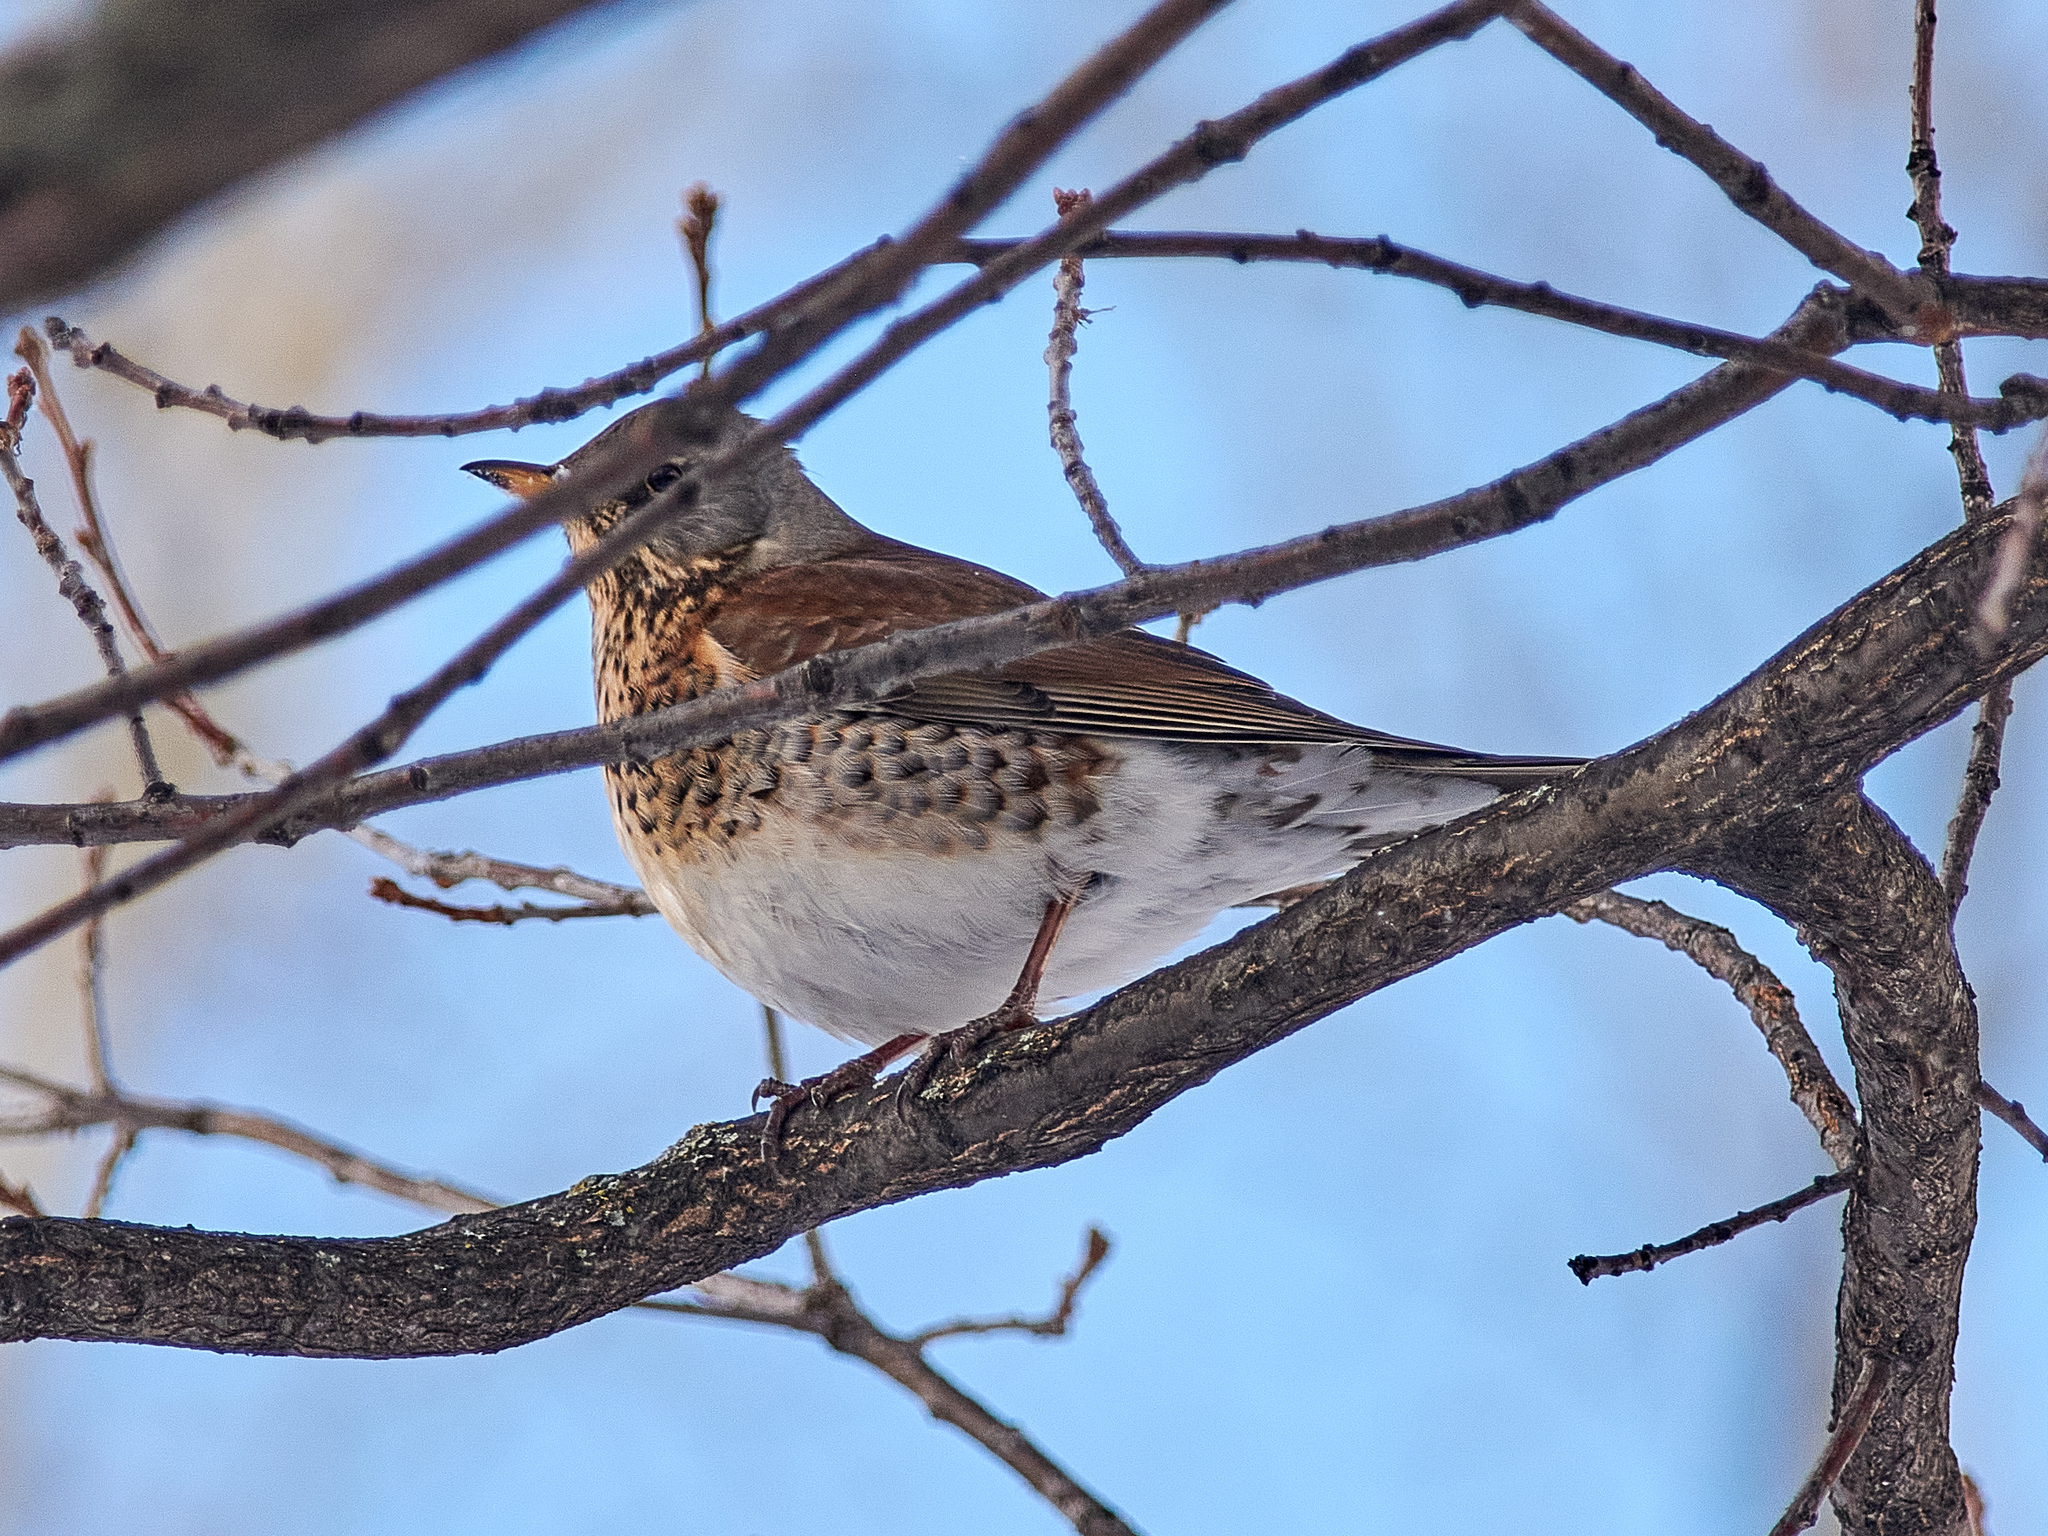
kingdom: Animalia
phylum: Chordata
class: Aves
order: Passeriformes
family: Turdidae
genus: Turdus
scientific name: Turdus pilaris
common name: Fieldfare
